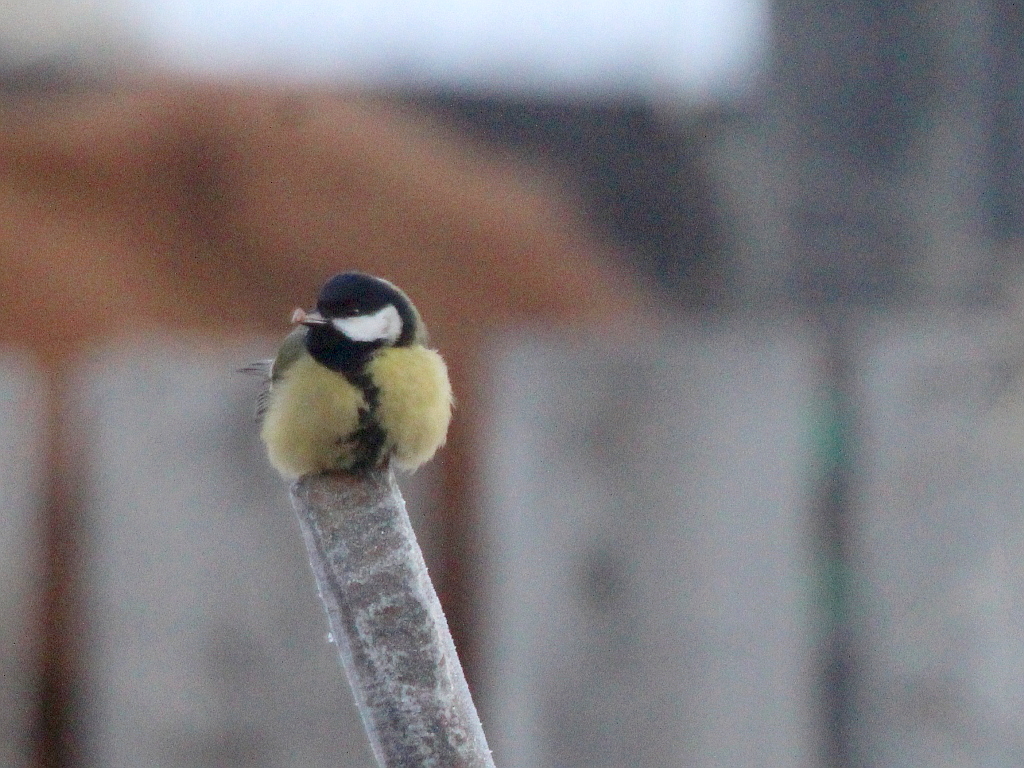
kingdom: Animalia
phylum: Chordata
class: Aves
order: Passeriformes
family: Paridae
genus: Parus
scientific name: Parus major
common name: Great tit
